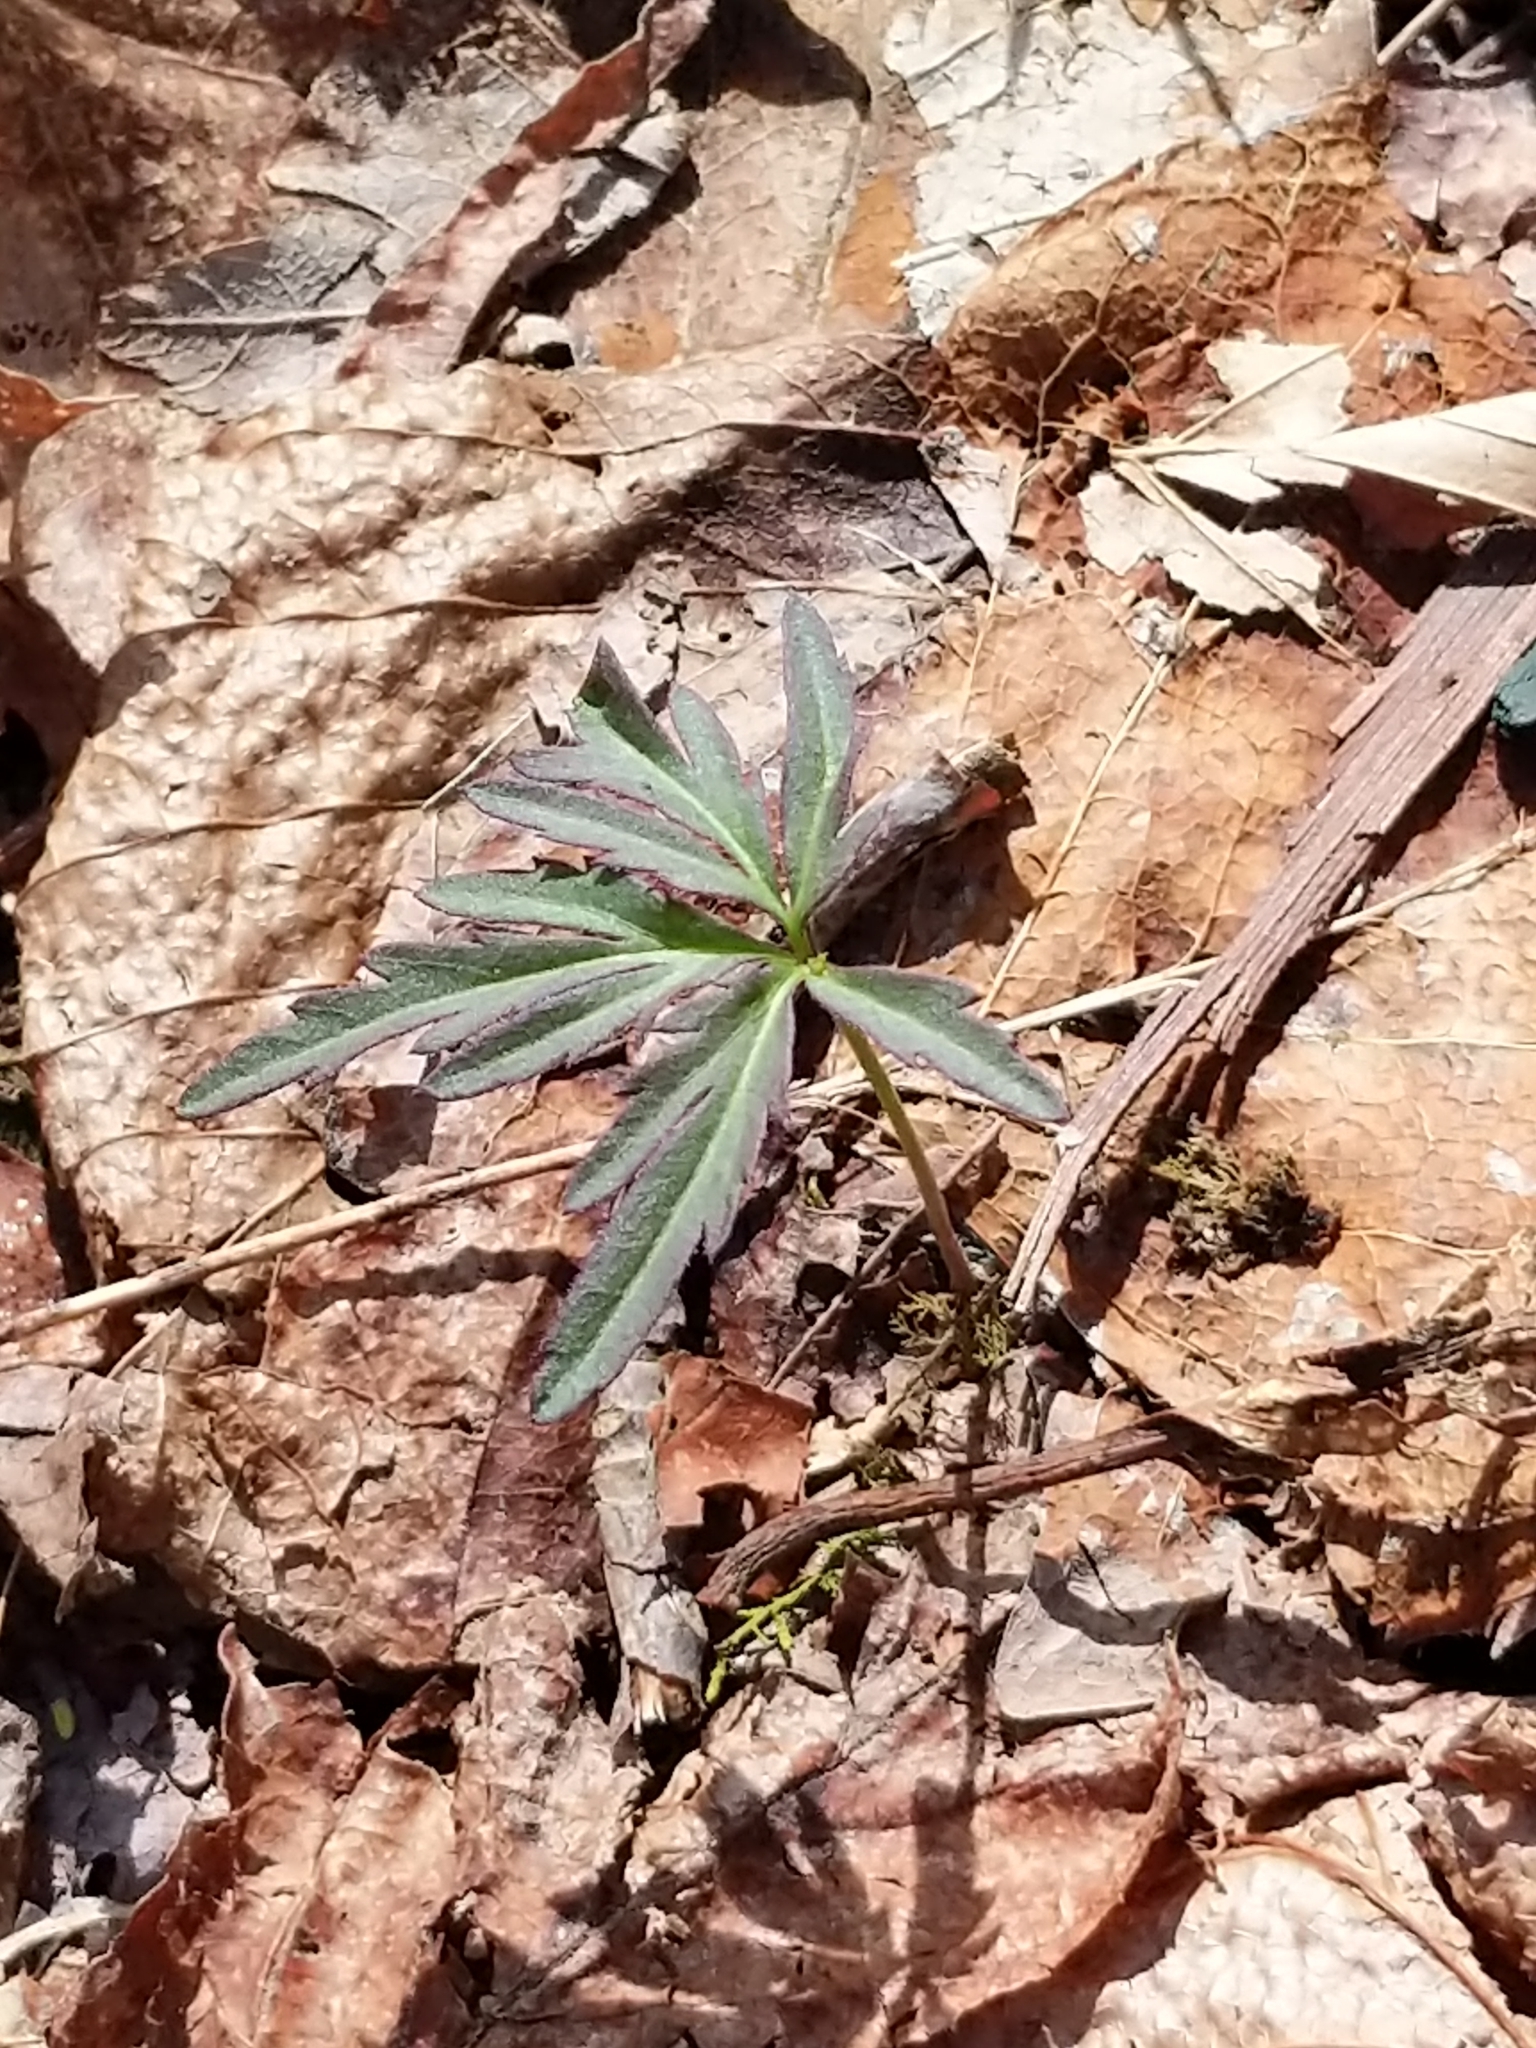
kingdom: Plantae
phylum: Tracheophyta
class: Magnoliopsida
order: Brassicales
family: Brassicaceae
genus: Cardamine
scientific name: Cardamine concatenata
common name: Cut-leaf toothcup
